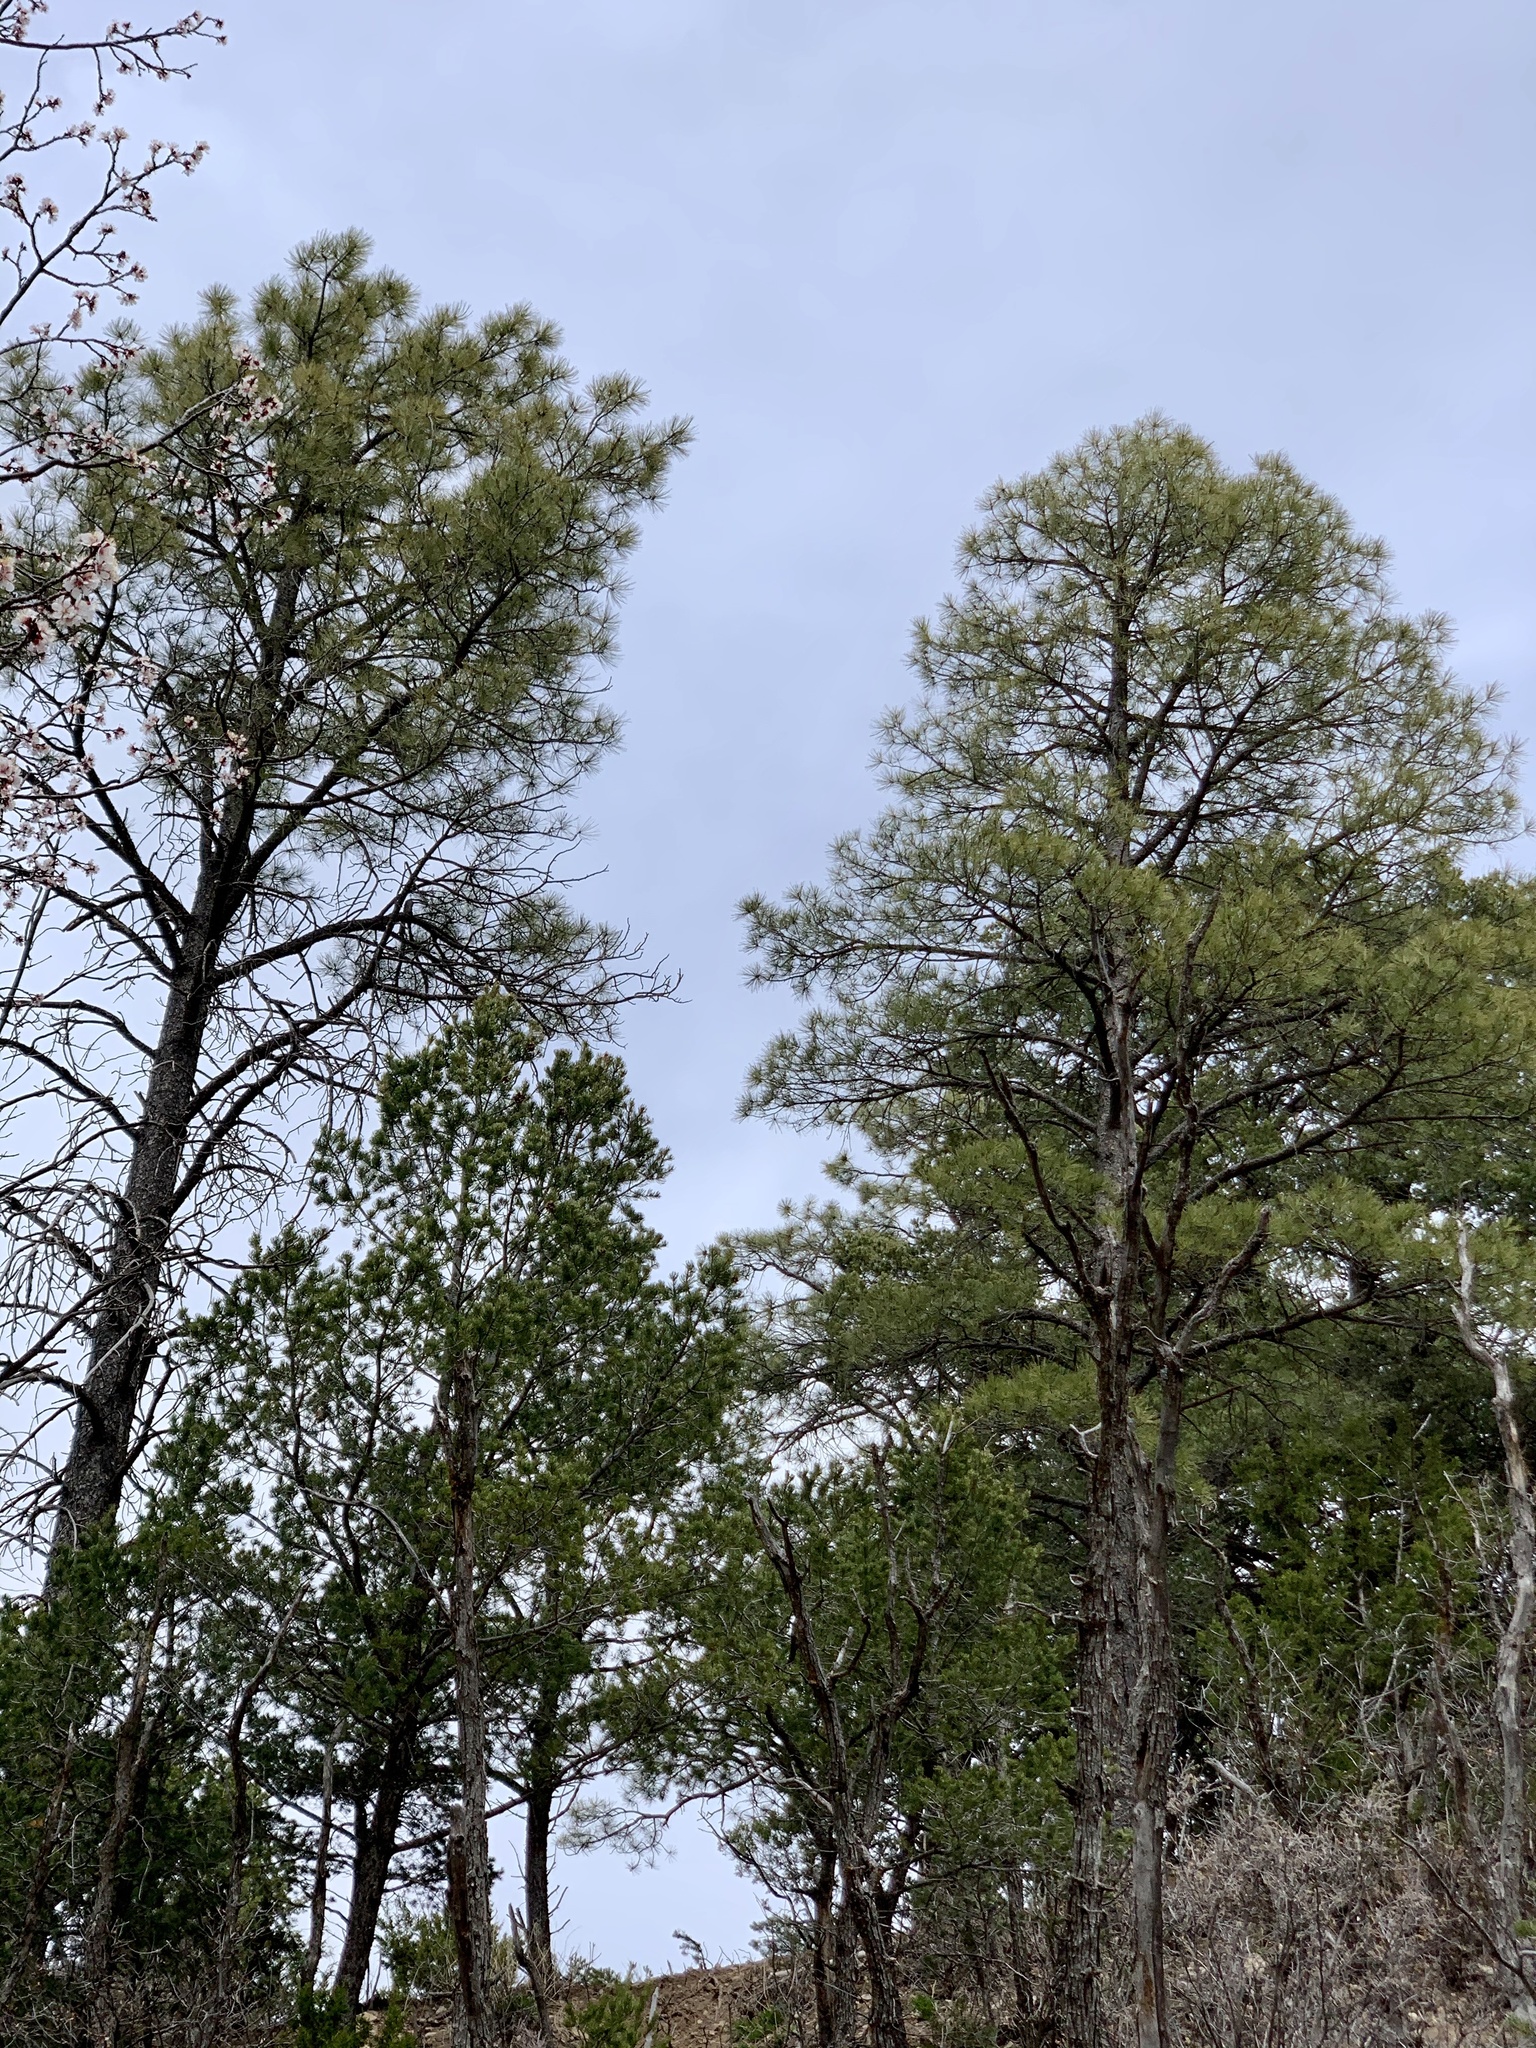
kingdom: Plantae
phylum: Tracheophyta
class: Pinopsida
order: Pinales
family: Pinaceae
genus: Pinus
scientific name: Pinus ponderosa
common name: Western yellow-pine
